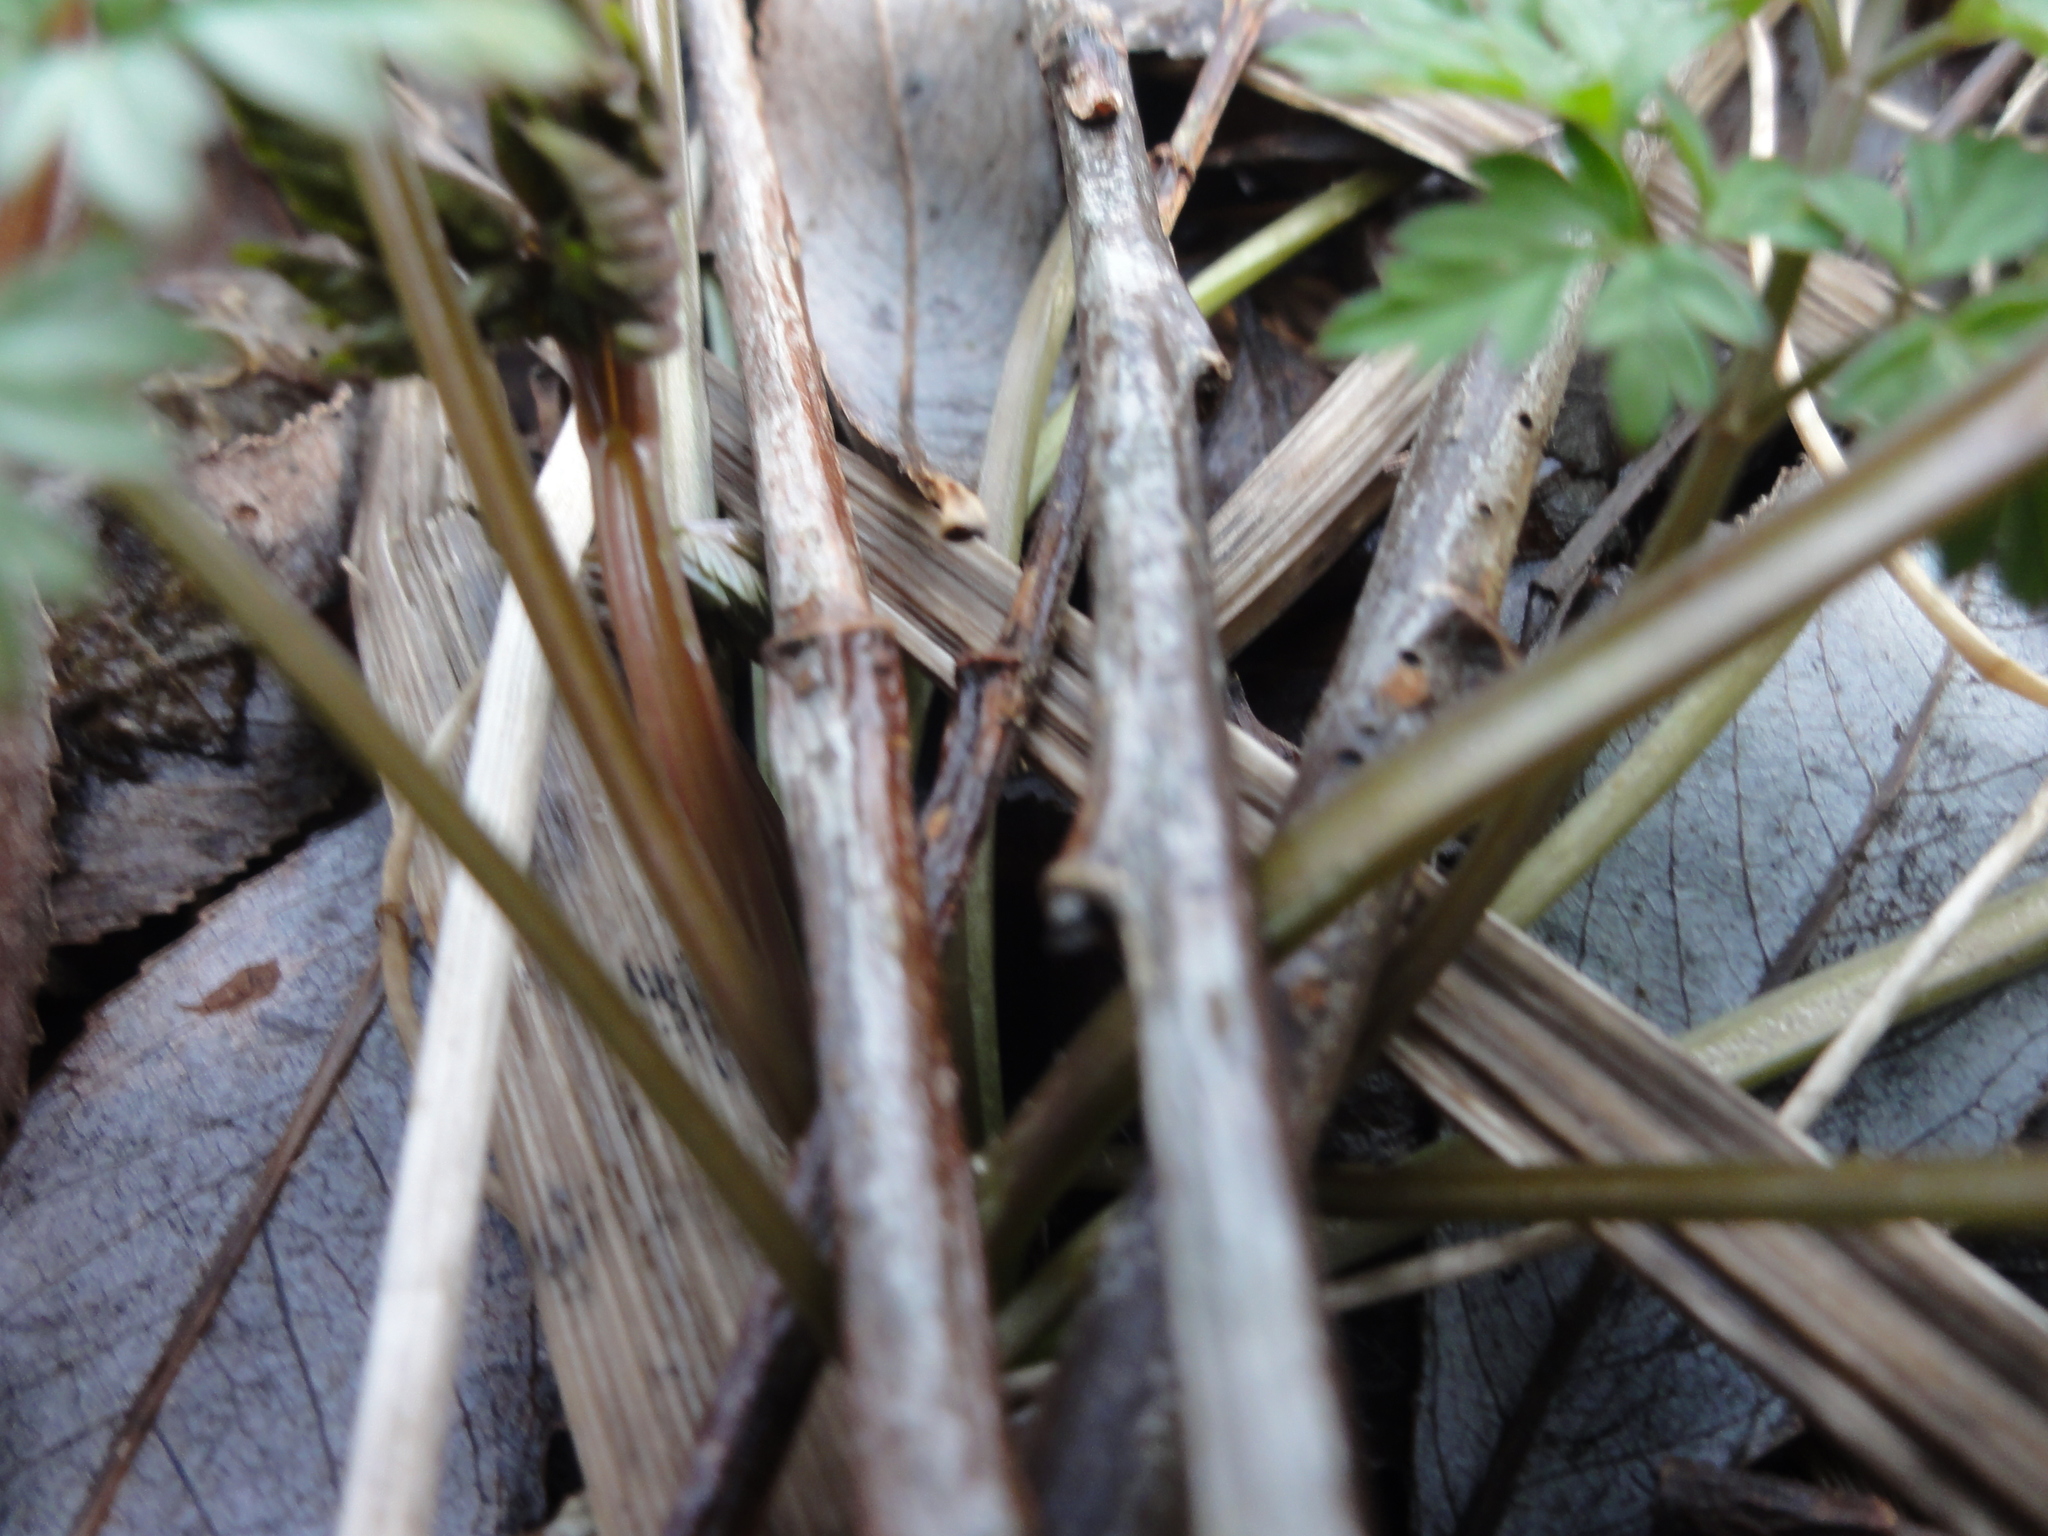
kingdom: Plantae
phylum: Tracheophyta
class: Magnoliopsida
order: Apiales
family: Apiaceae
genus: Anthriscus
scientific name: Anthriscus sylvestris
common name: Cow parsley
